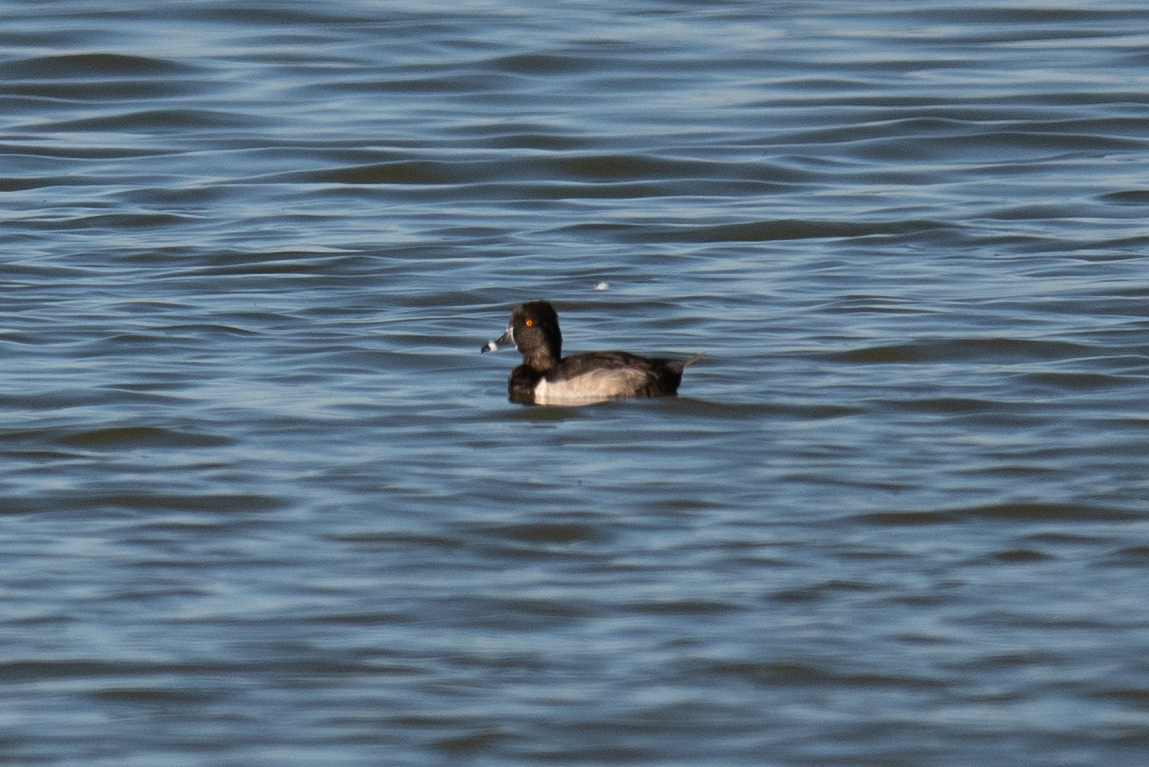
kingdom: Animalia
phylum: Chordata
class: Aves
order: Anseriformes
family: Anatidae
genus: Aythya
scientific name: Aythya collaris
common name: Ring-necked duck
